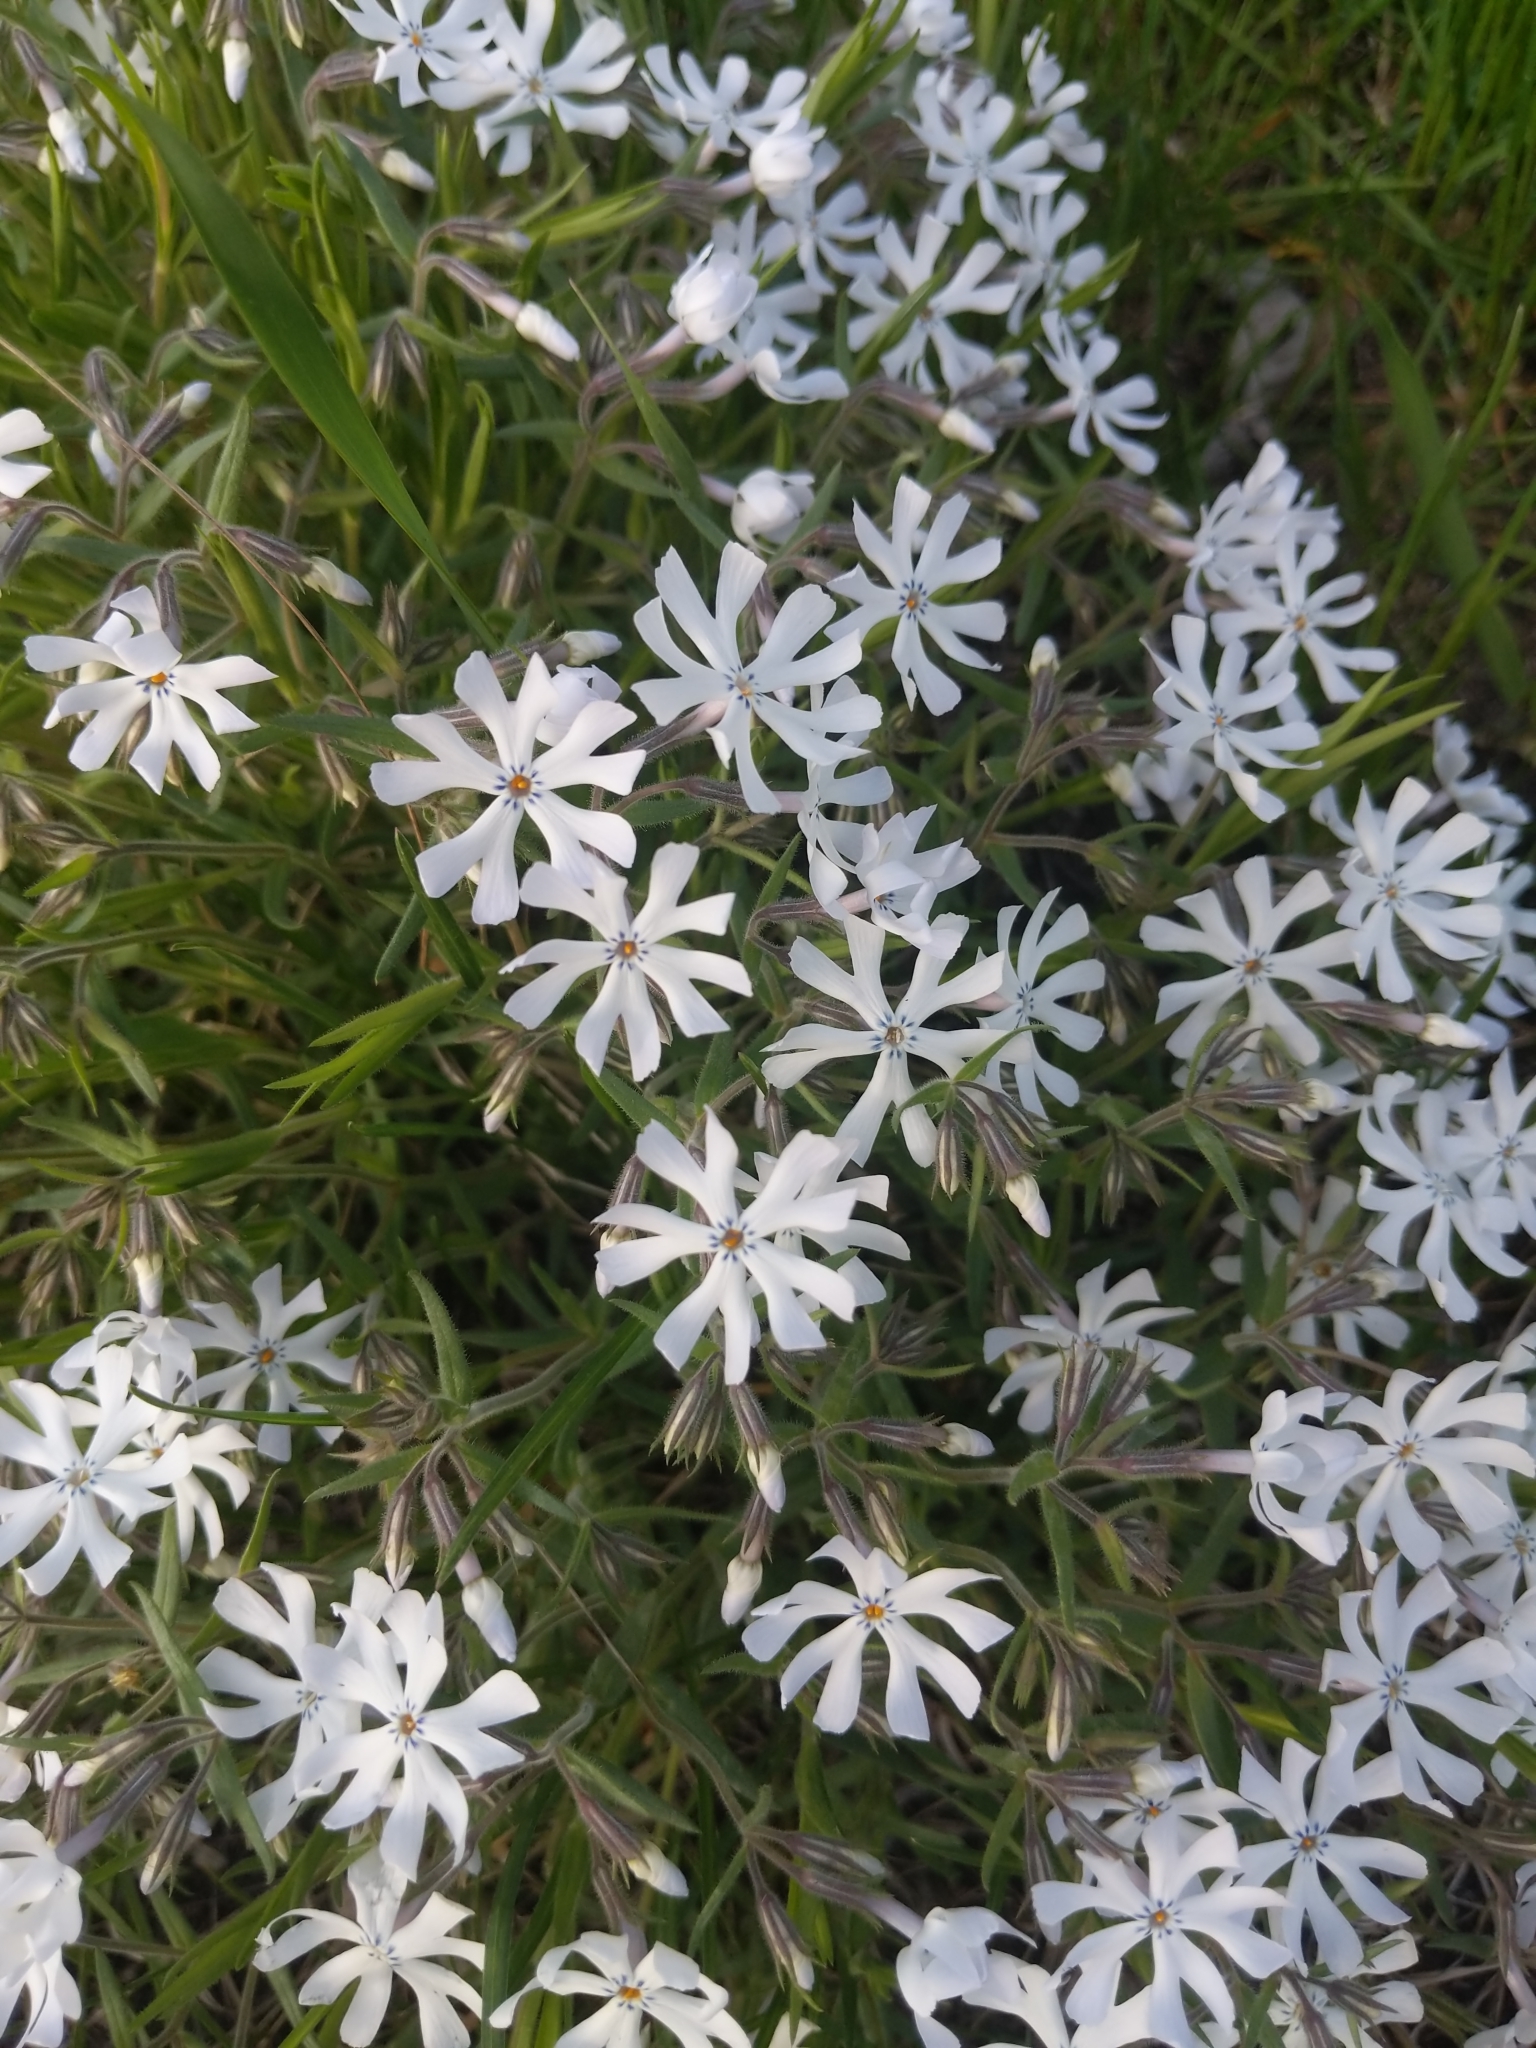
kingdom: Plantae
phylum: Tracheophyta
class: Magnoliopsida
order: Ericales
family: Polemoniaceae
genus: Phlox
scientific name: Phlox bifida
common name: Sand phlox
